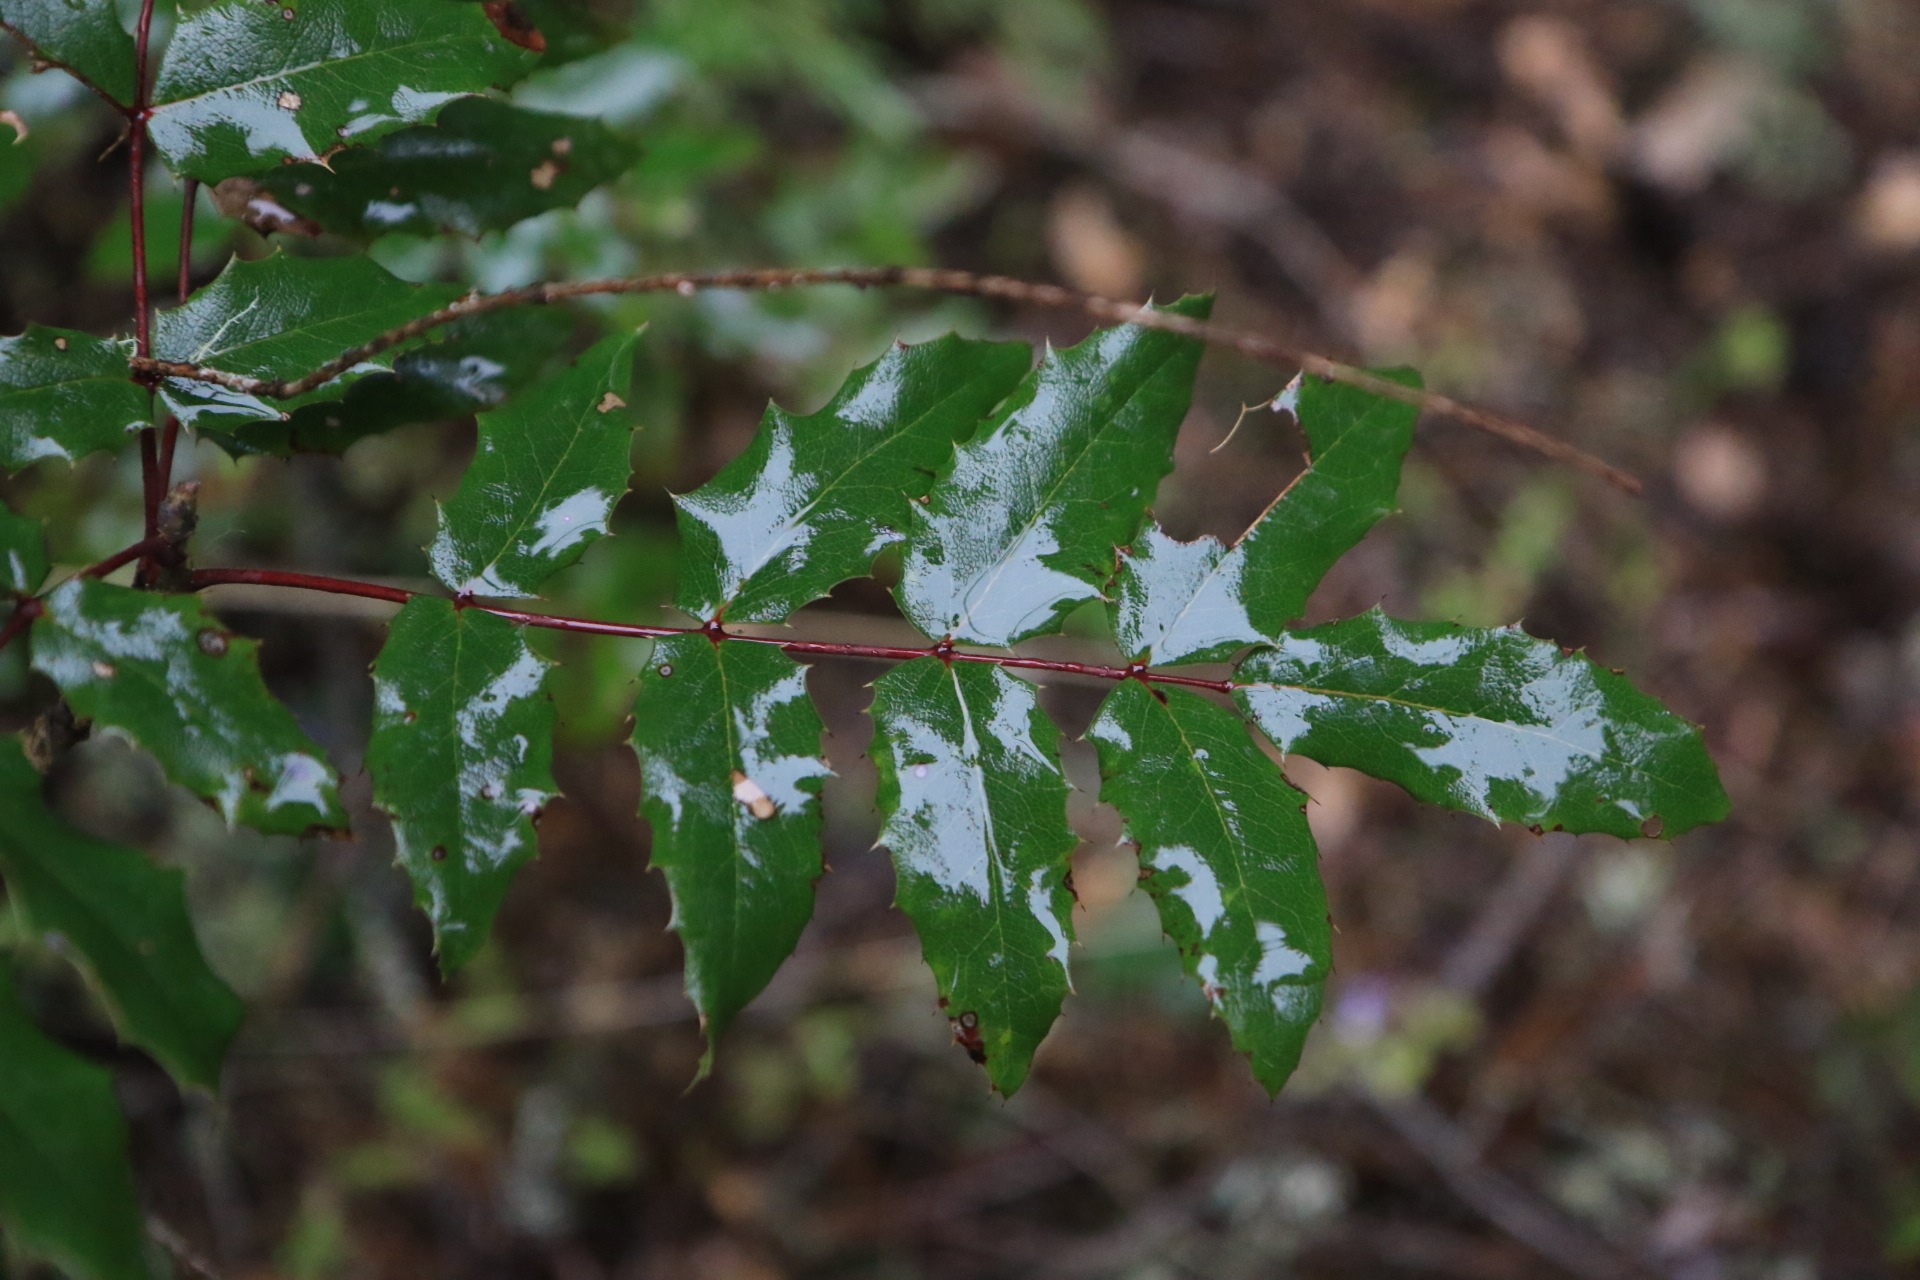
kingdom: Plantae
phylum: Tracheophyta
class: Magnoliopsida
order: Ranunculales
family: Berberidaceae
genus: Mahonia
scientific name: Mahonia aquifolium
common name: Oregon-grape
